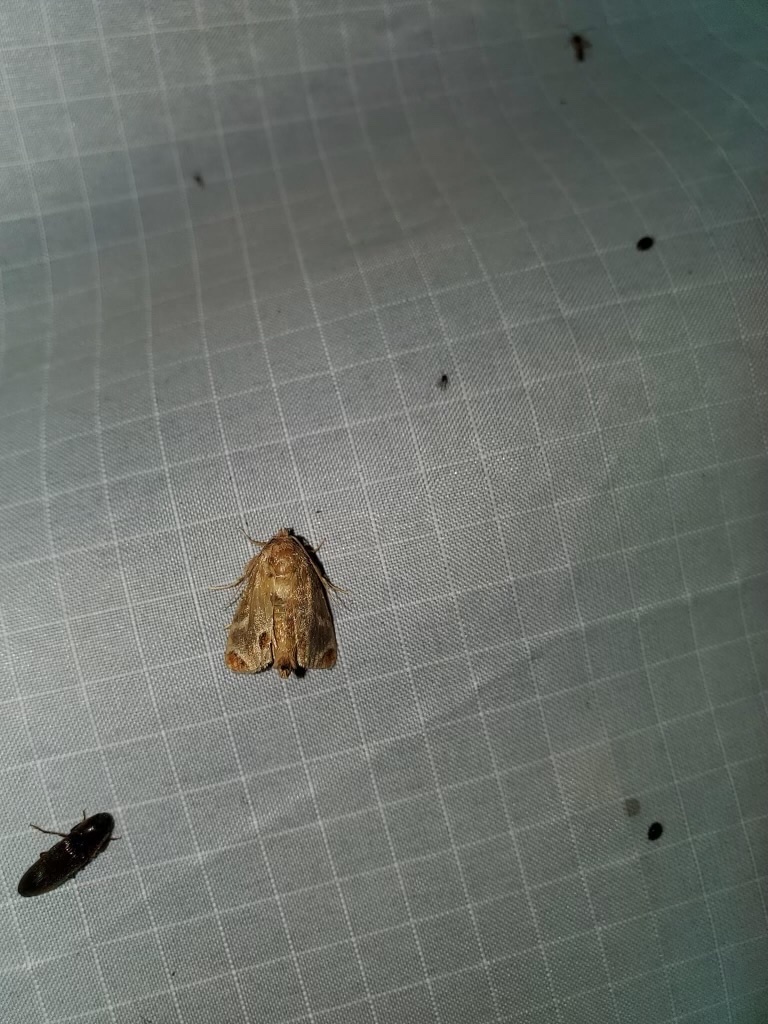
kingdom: Animalia
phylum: Arthropoda
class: Insecta
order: Lepidoptera
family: Limacodidae
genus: Apoda
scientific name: Apoda biguttata
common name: Shagreened slug moth
